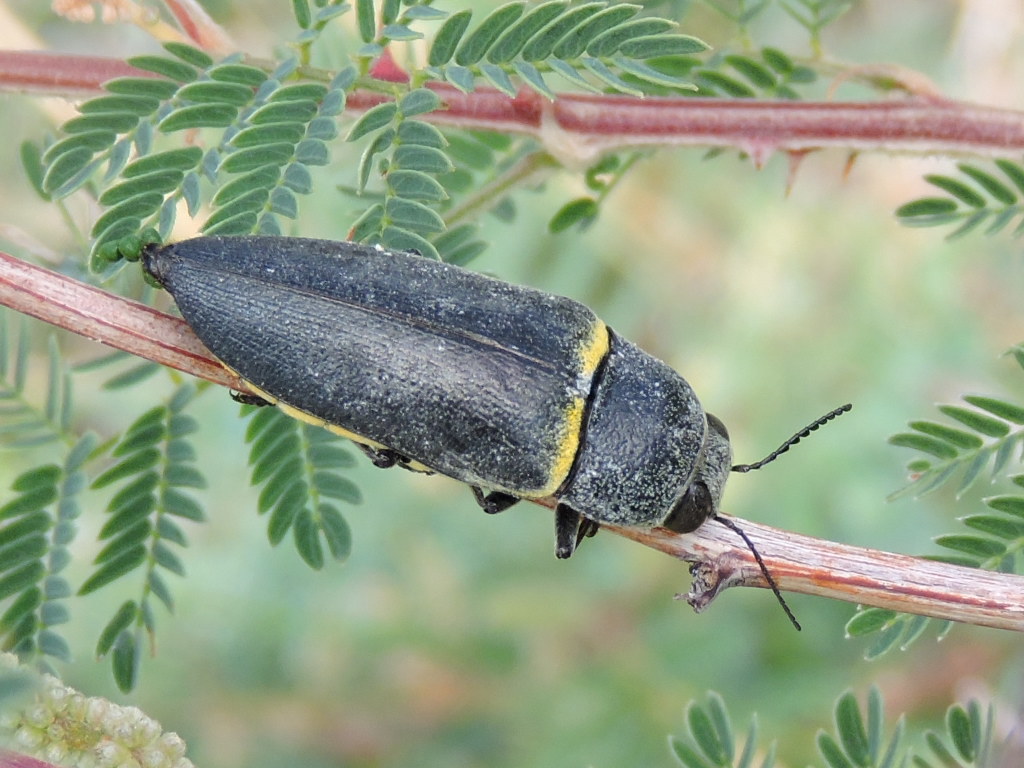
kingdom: Animalia
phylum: Arthropoda
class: Insecta
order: Coleoptera
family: Buprestidae
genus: Hippomelas
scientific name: Hippomelas sphenicus
